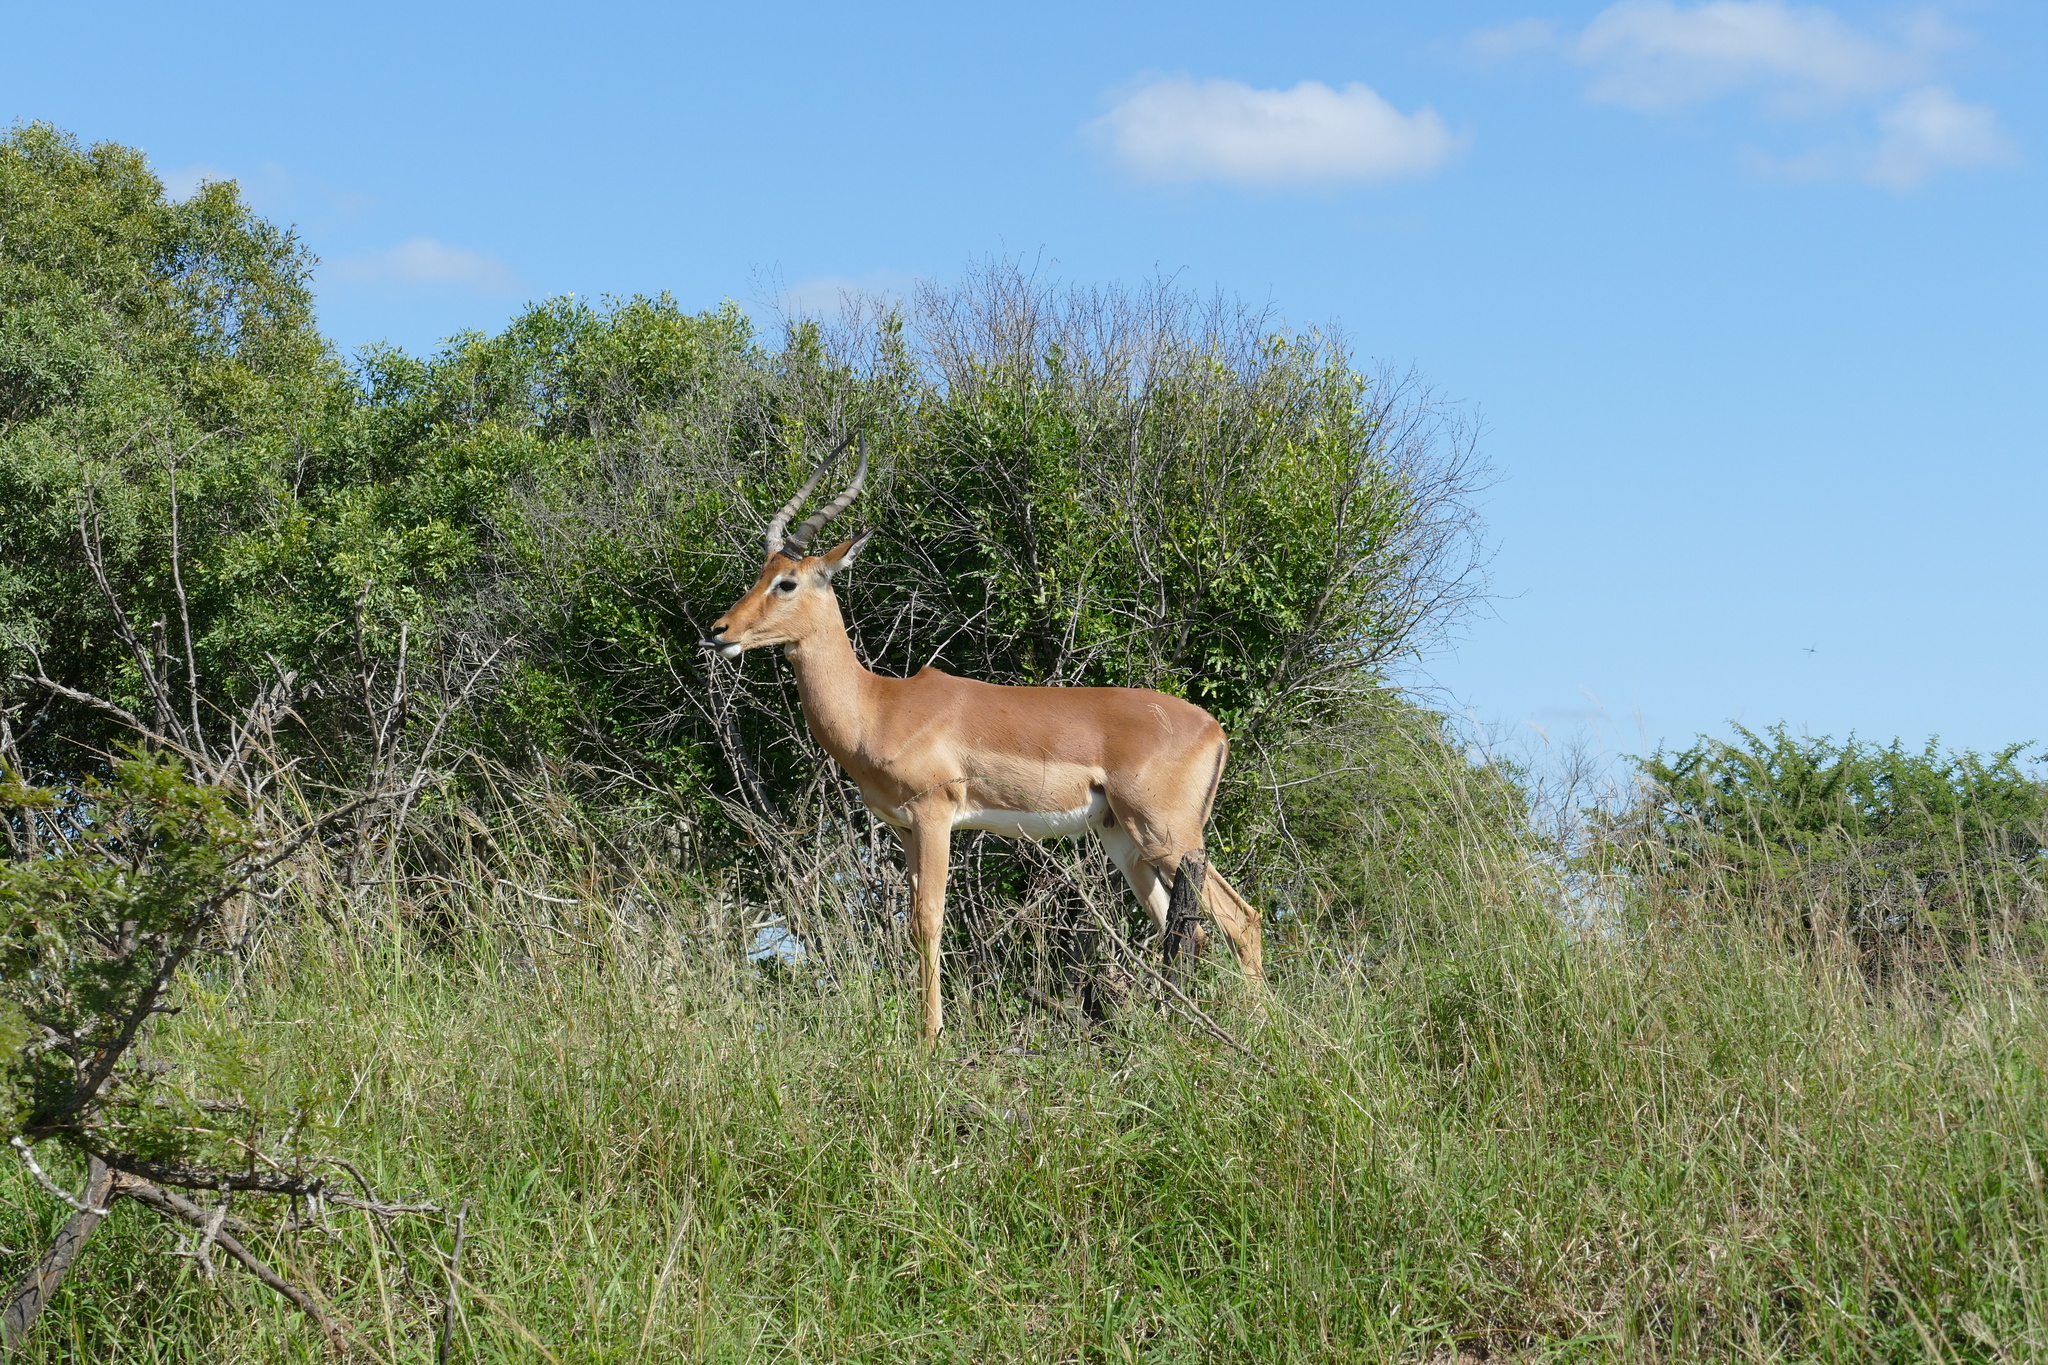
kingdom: Animalia
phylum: Chordata
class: Mammalia
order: Artiodactyla
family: Bovidae
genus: Aepyceros
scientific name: Aepyceros melampus
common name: Impala
